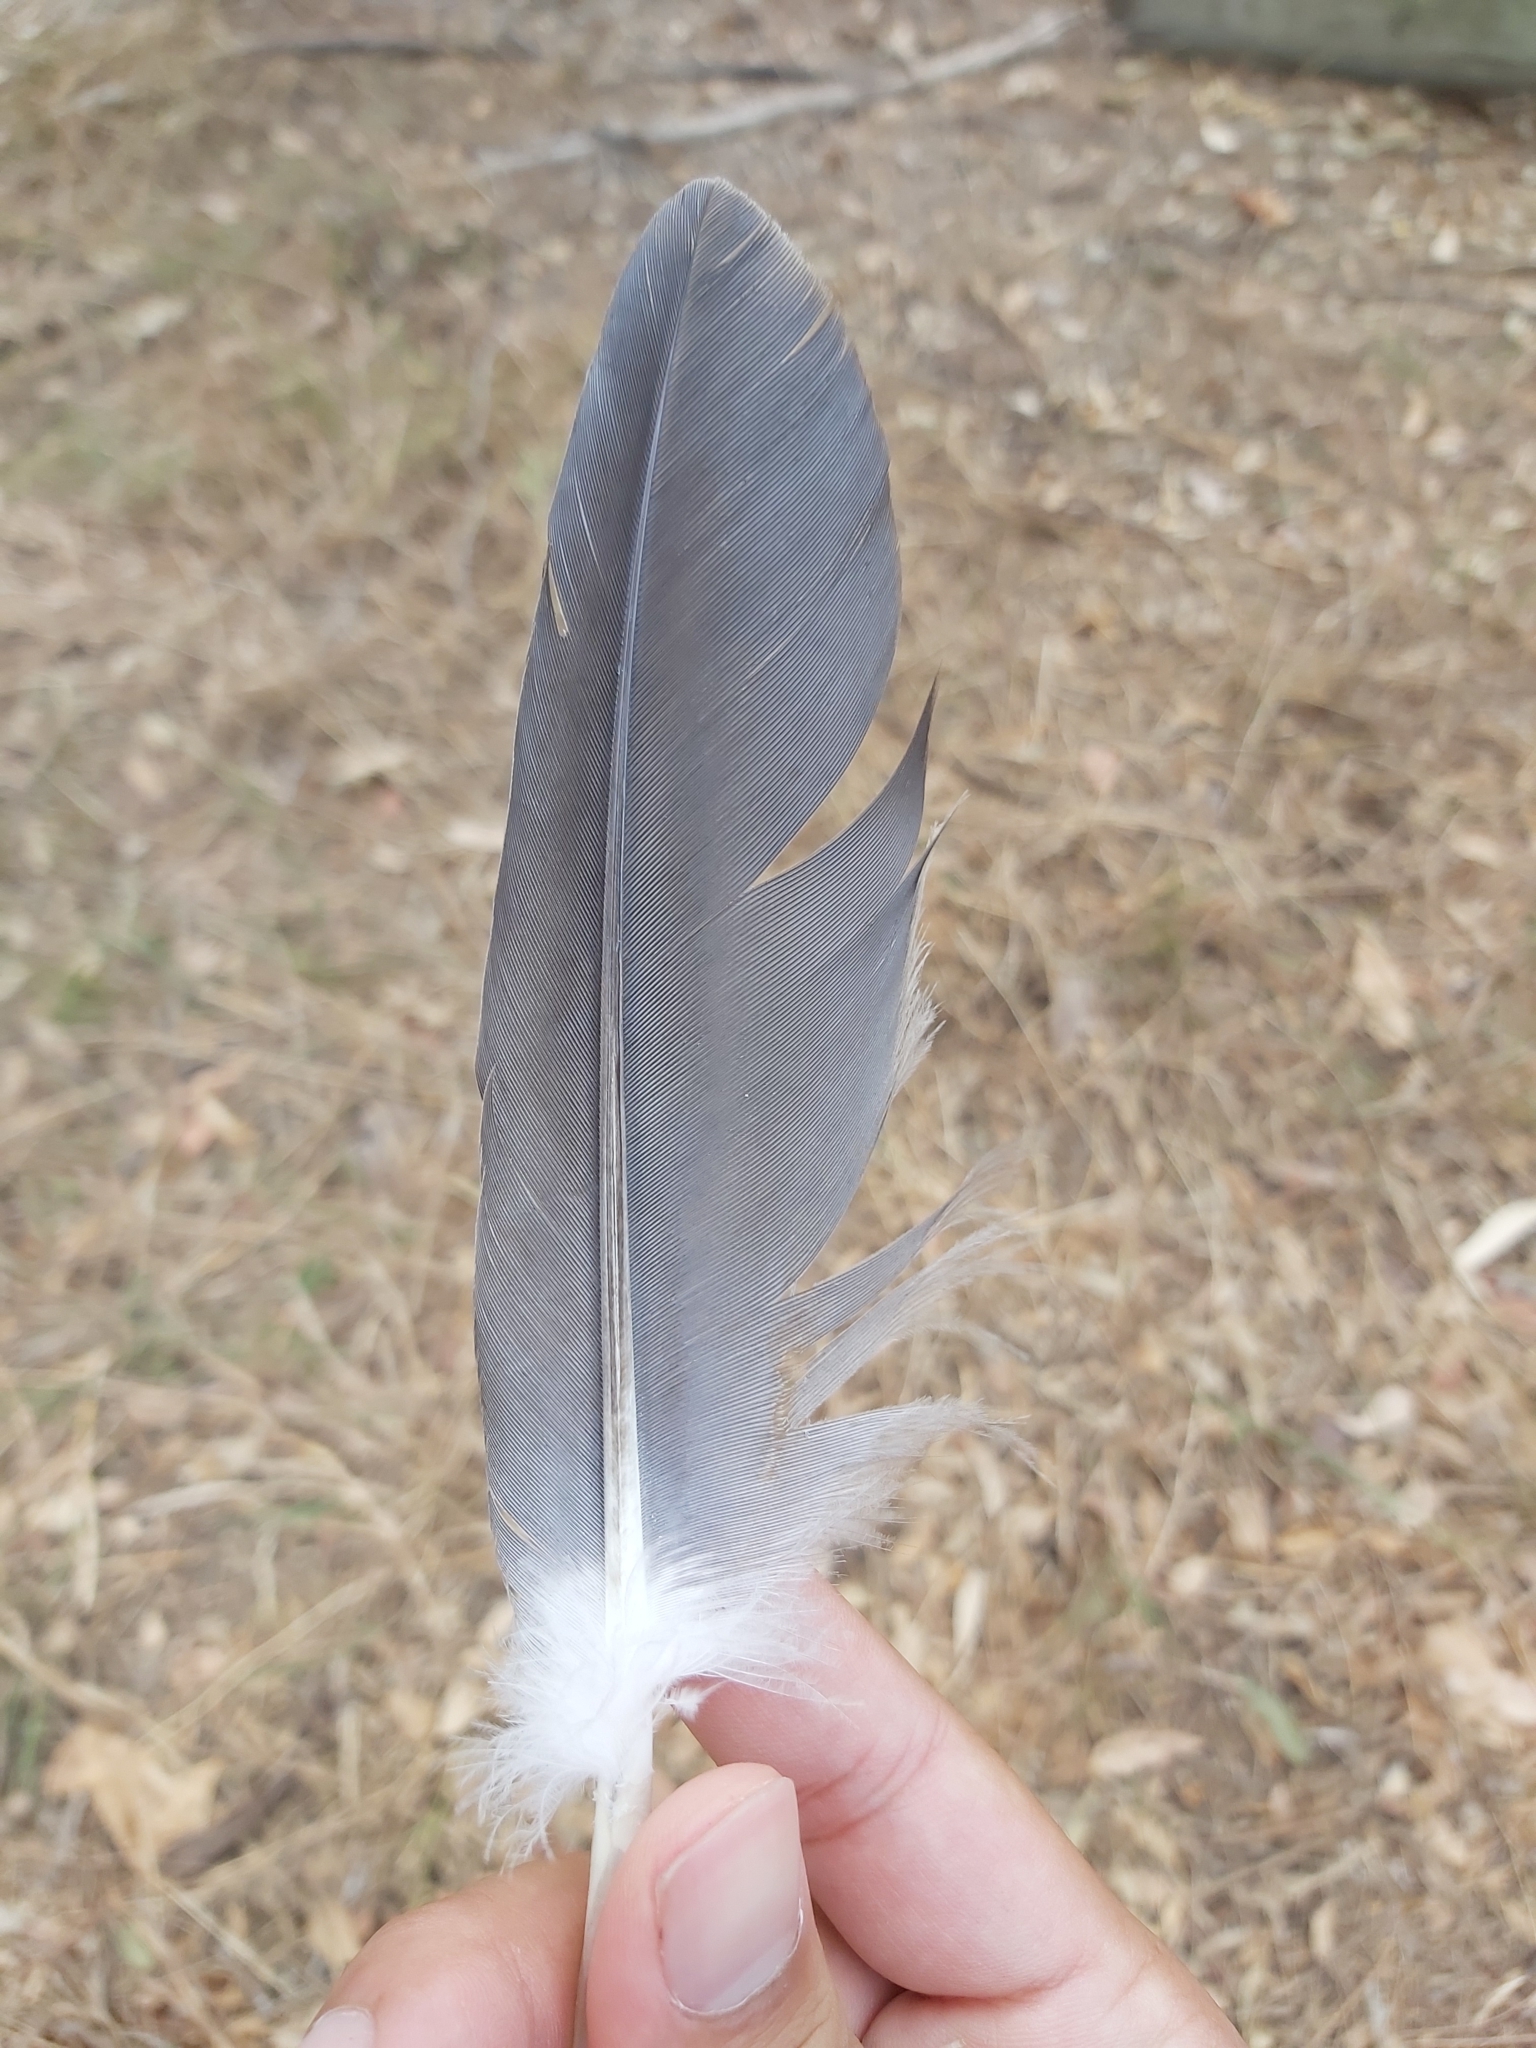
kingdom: Animalia
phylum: Chordata
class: Aves
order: Pelecaniformes
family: Ardeidae
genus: Egretta
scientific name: Egretta novaehollandiae
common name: White-faced heron
